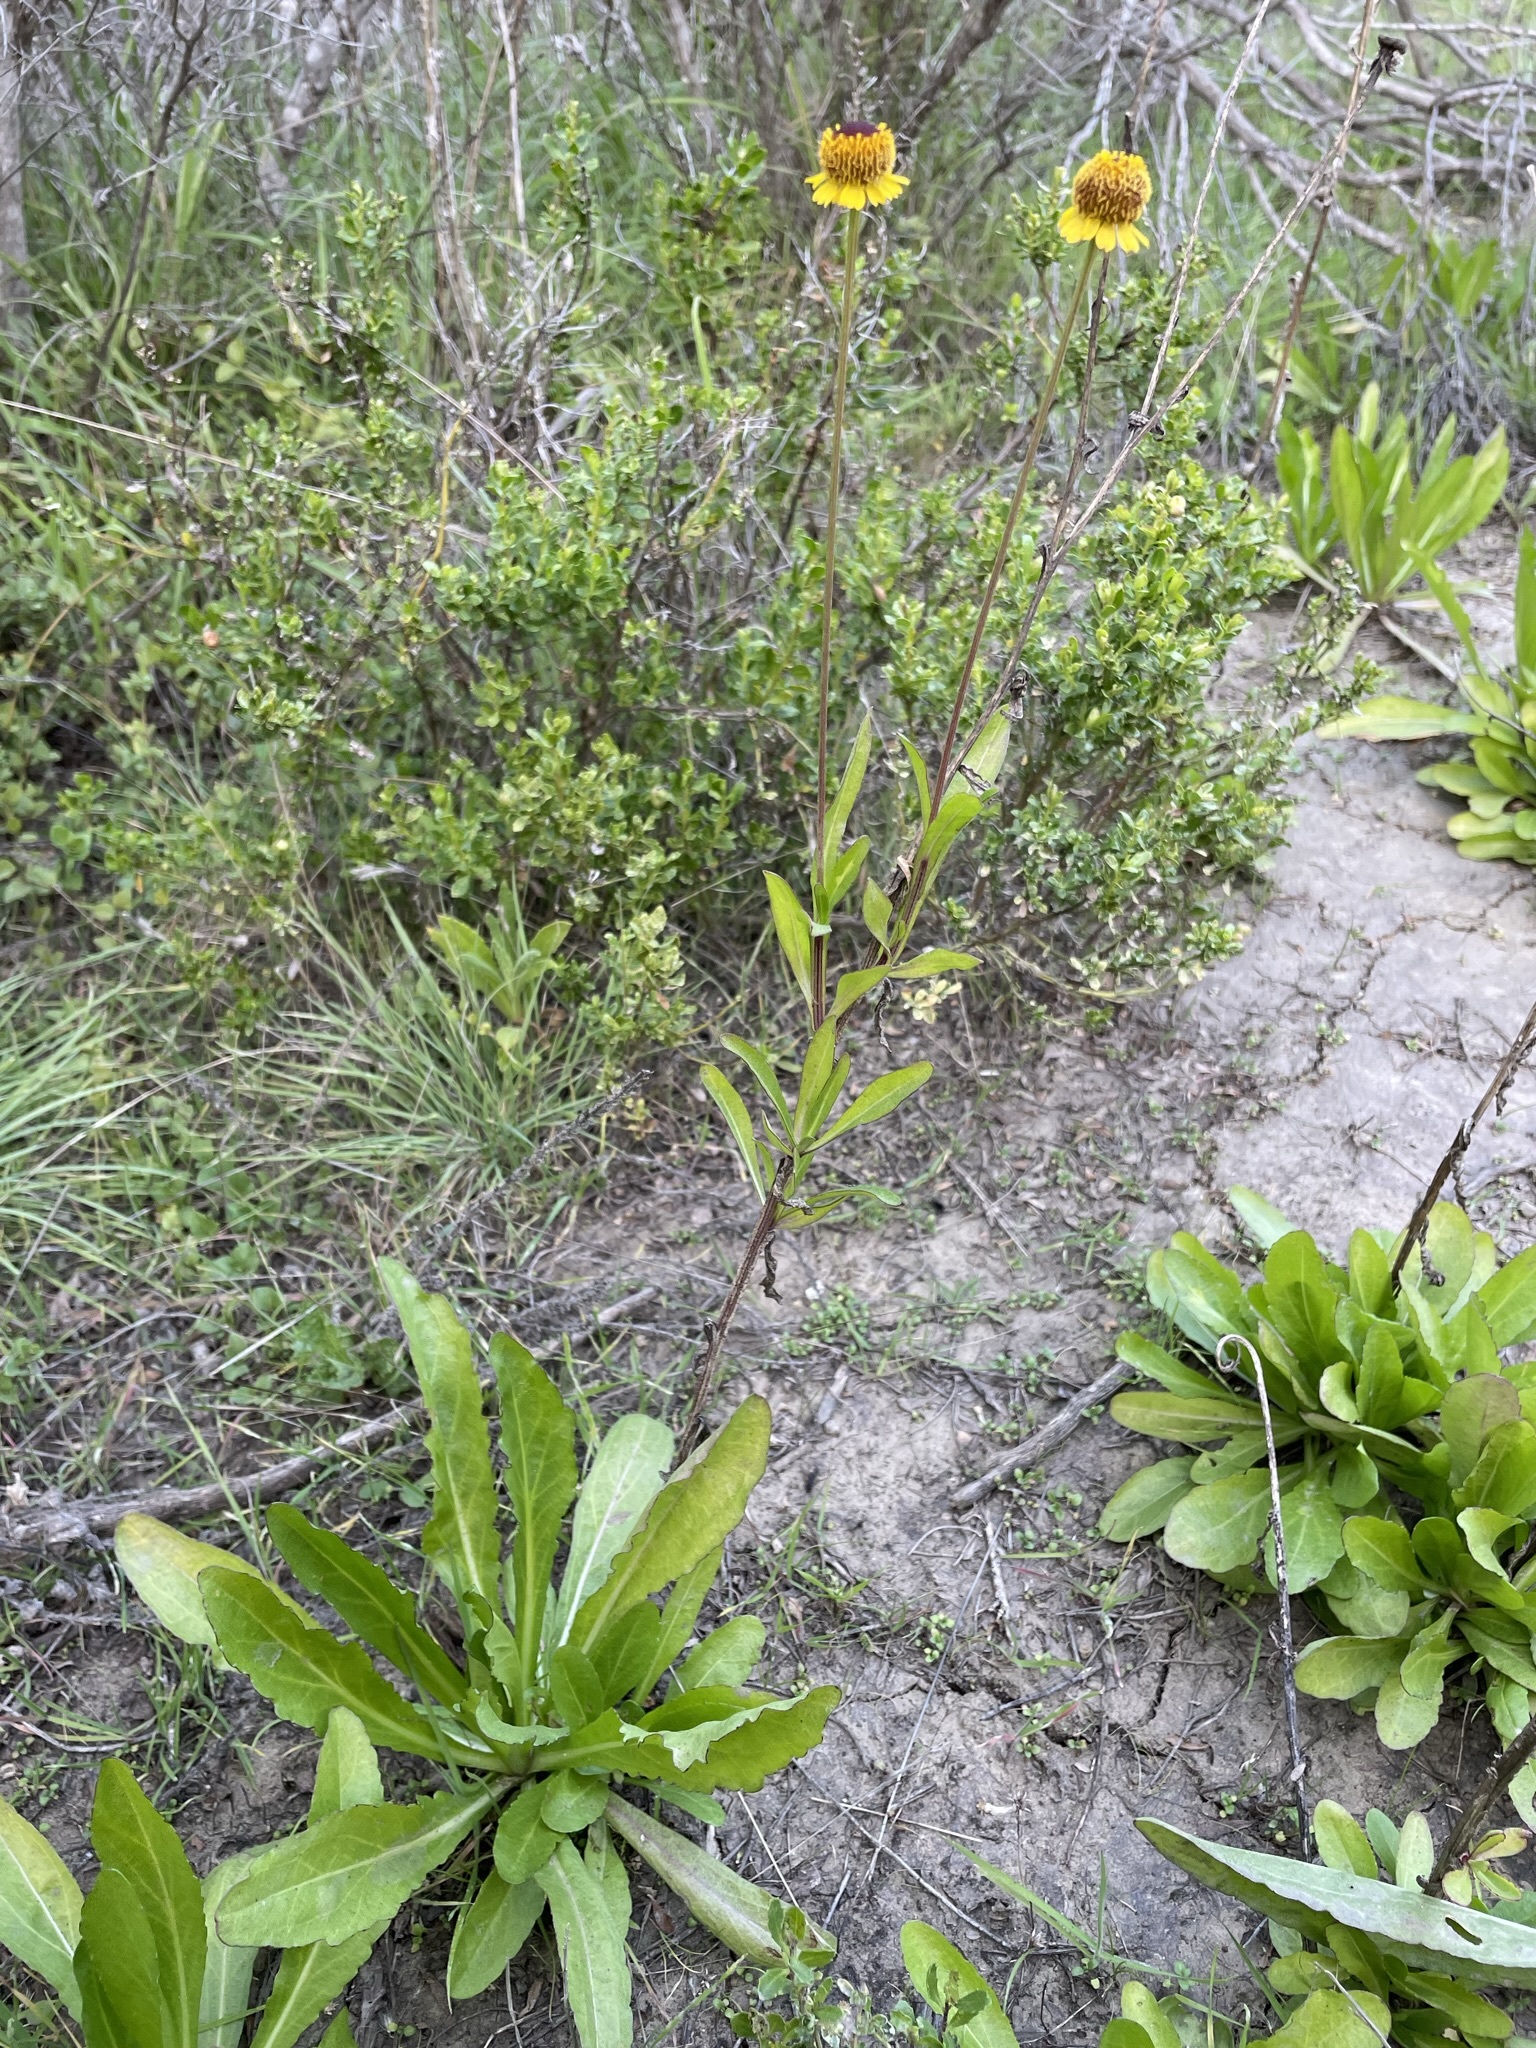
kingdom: Plantae
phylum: Tracheophyta
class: Magnoliopsida
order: Asterales
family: Asteraceae
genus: Helenium
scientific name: Helenium puberulum
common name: Sneezewort
